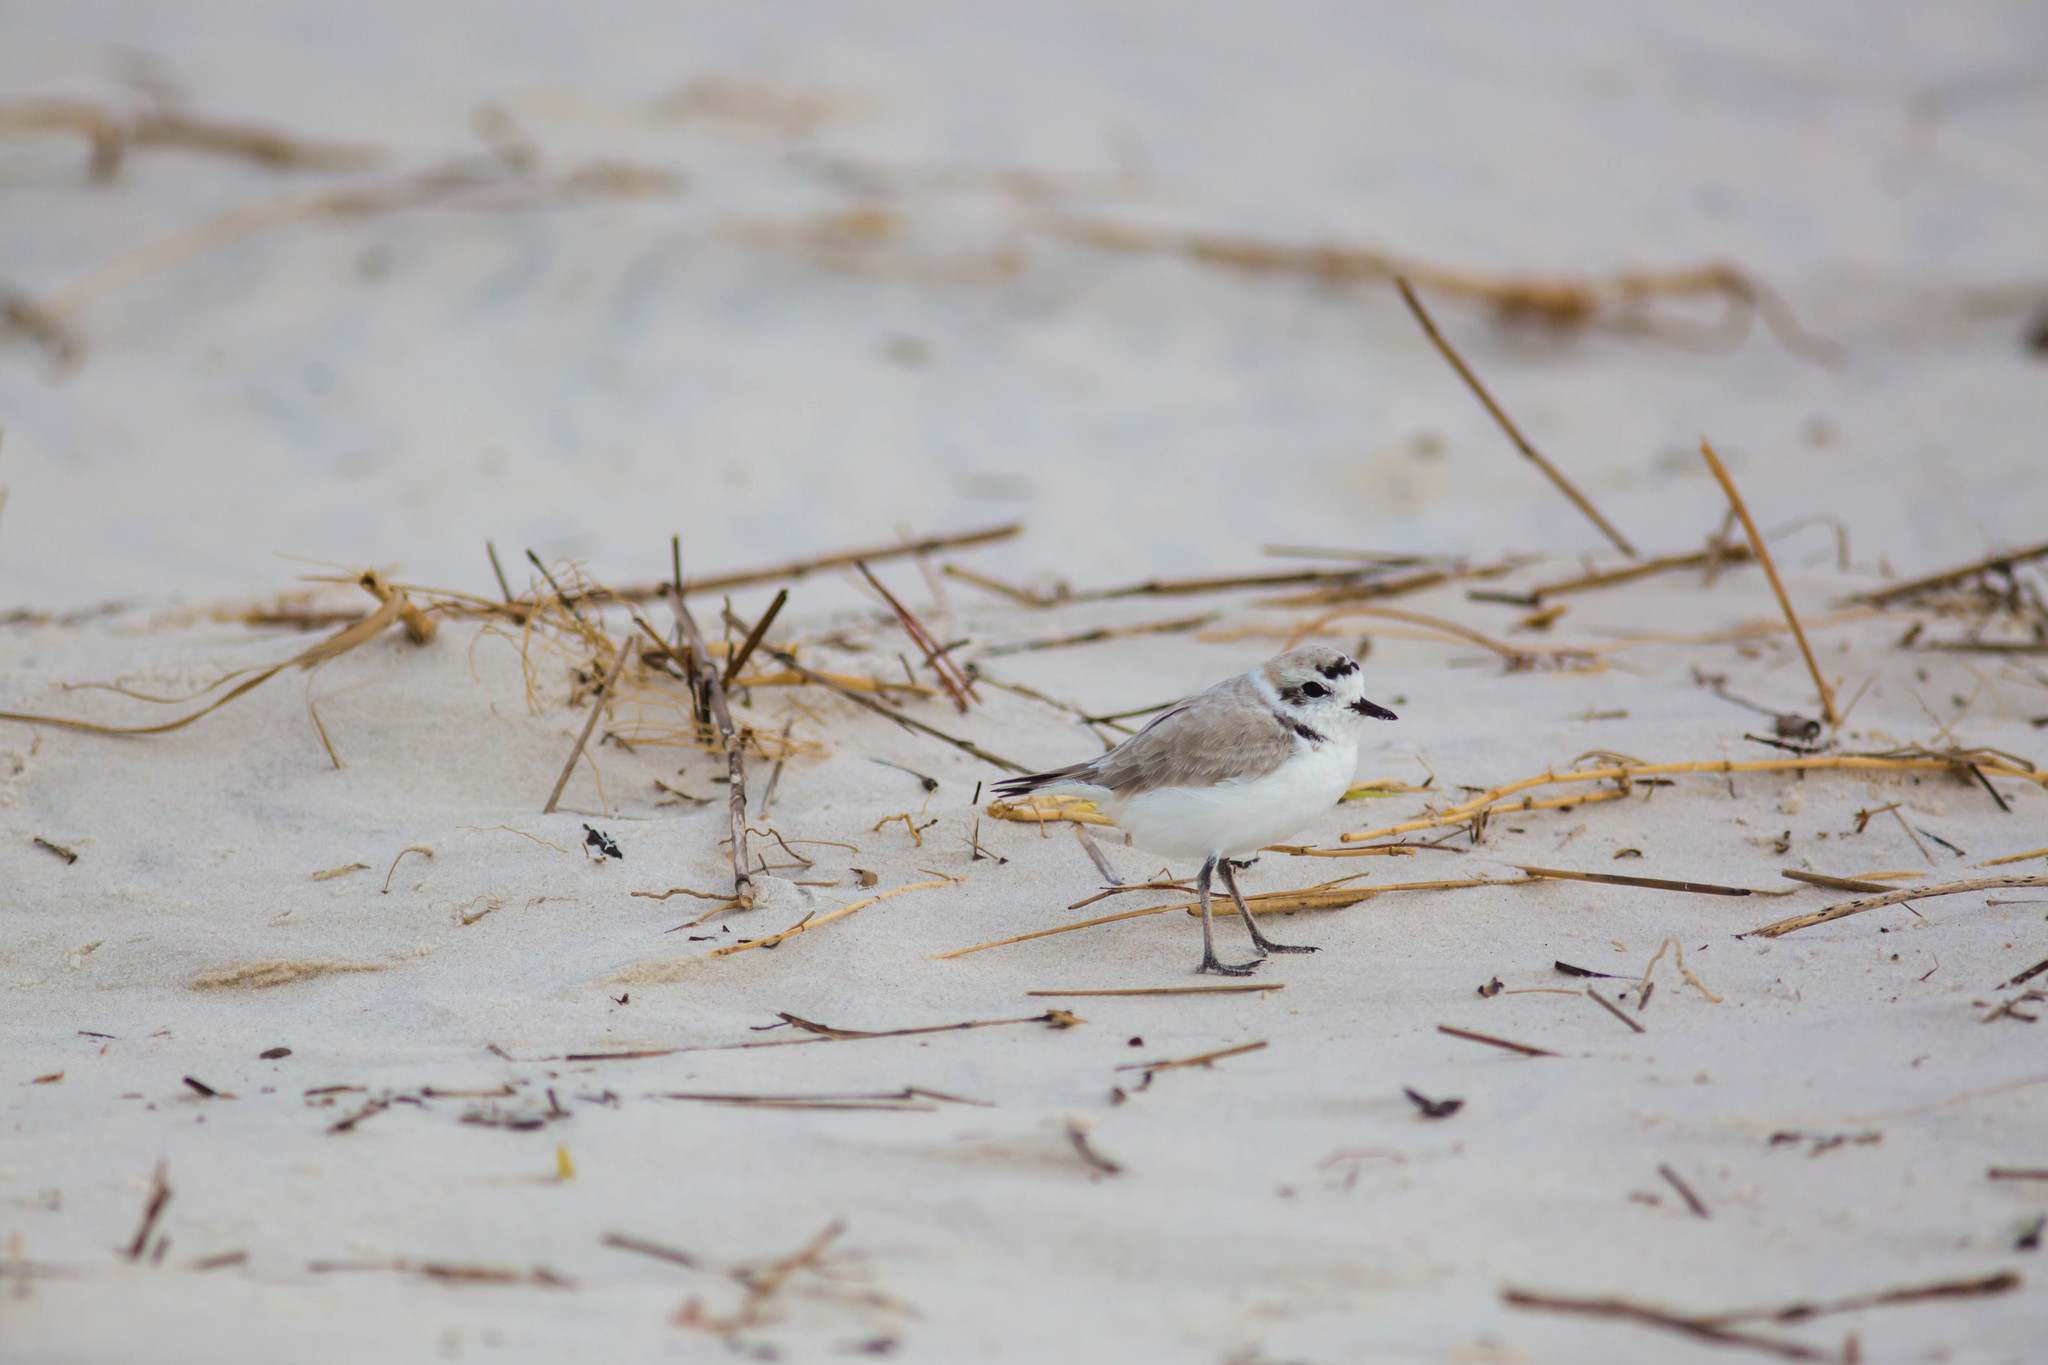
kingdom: Animalia
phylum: Chordata
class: Aves
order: Charadriiformes
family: Charadriidae
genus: Anarhynchus
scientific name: Anarhynchus
